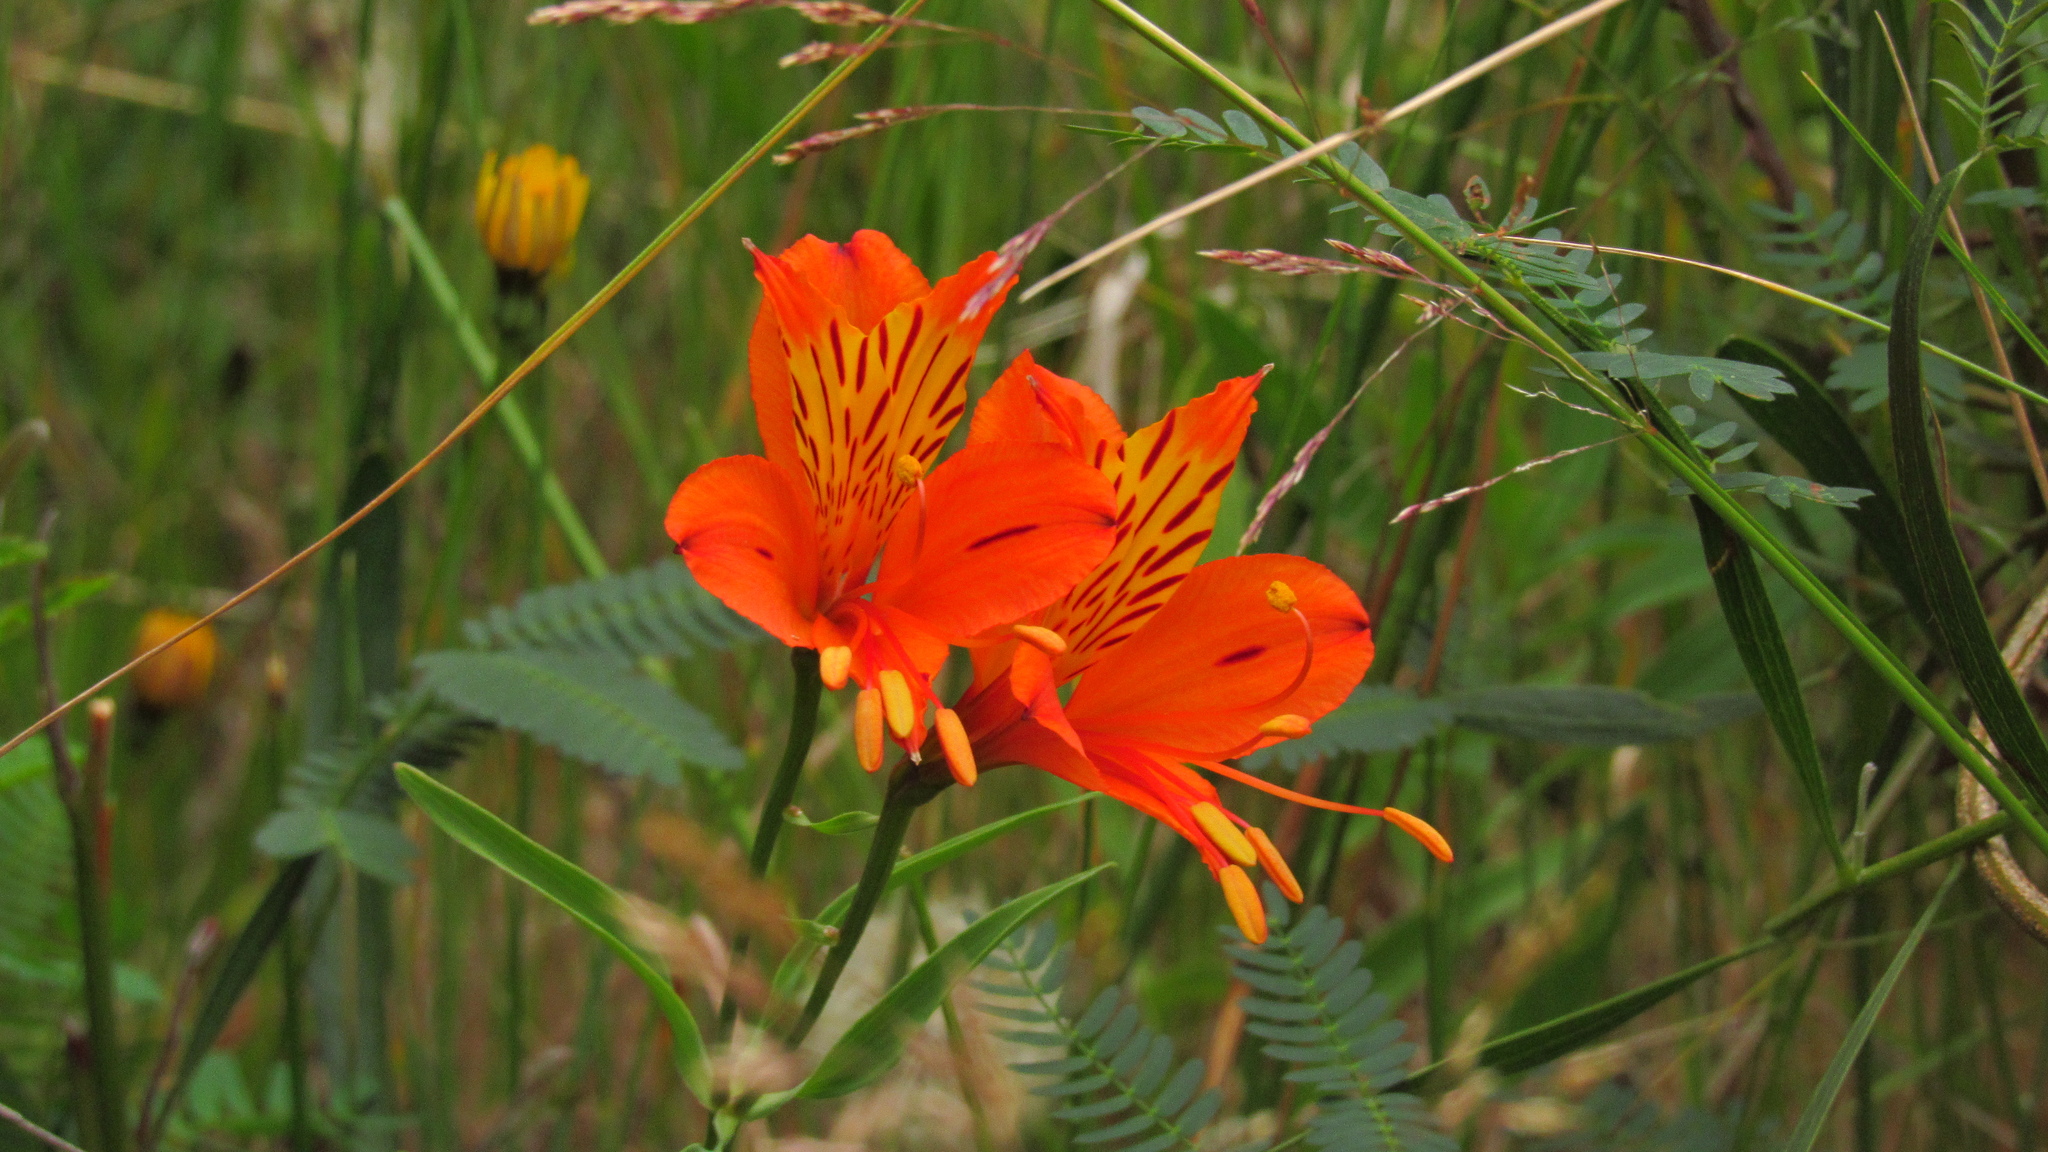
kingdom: Plantae
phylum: Tracheophyta
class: Liliopsida
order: Liliales
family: Alstroemeriaceae
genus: Alstroemeria
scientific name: Alstroemeria aurea
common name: Peruvian lily
